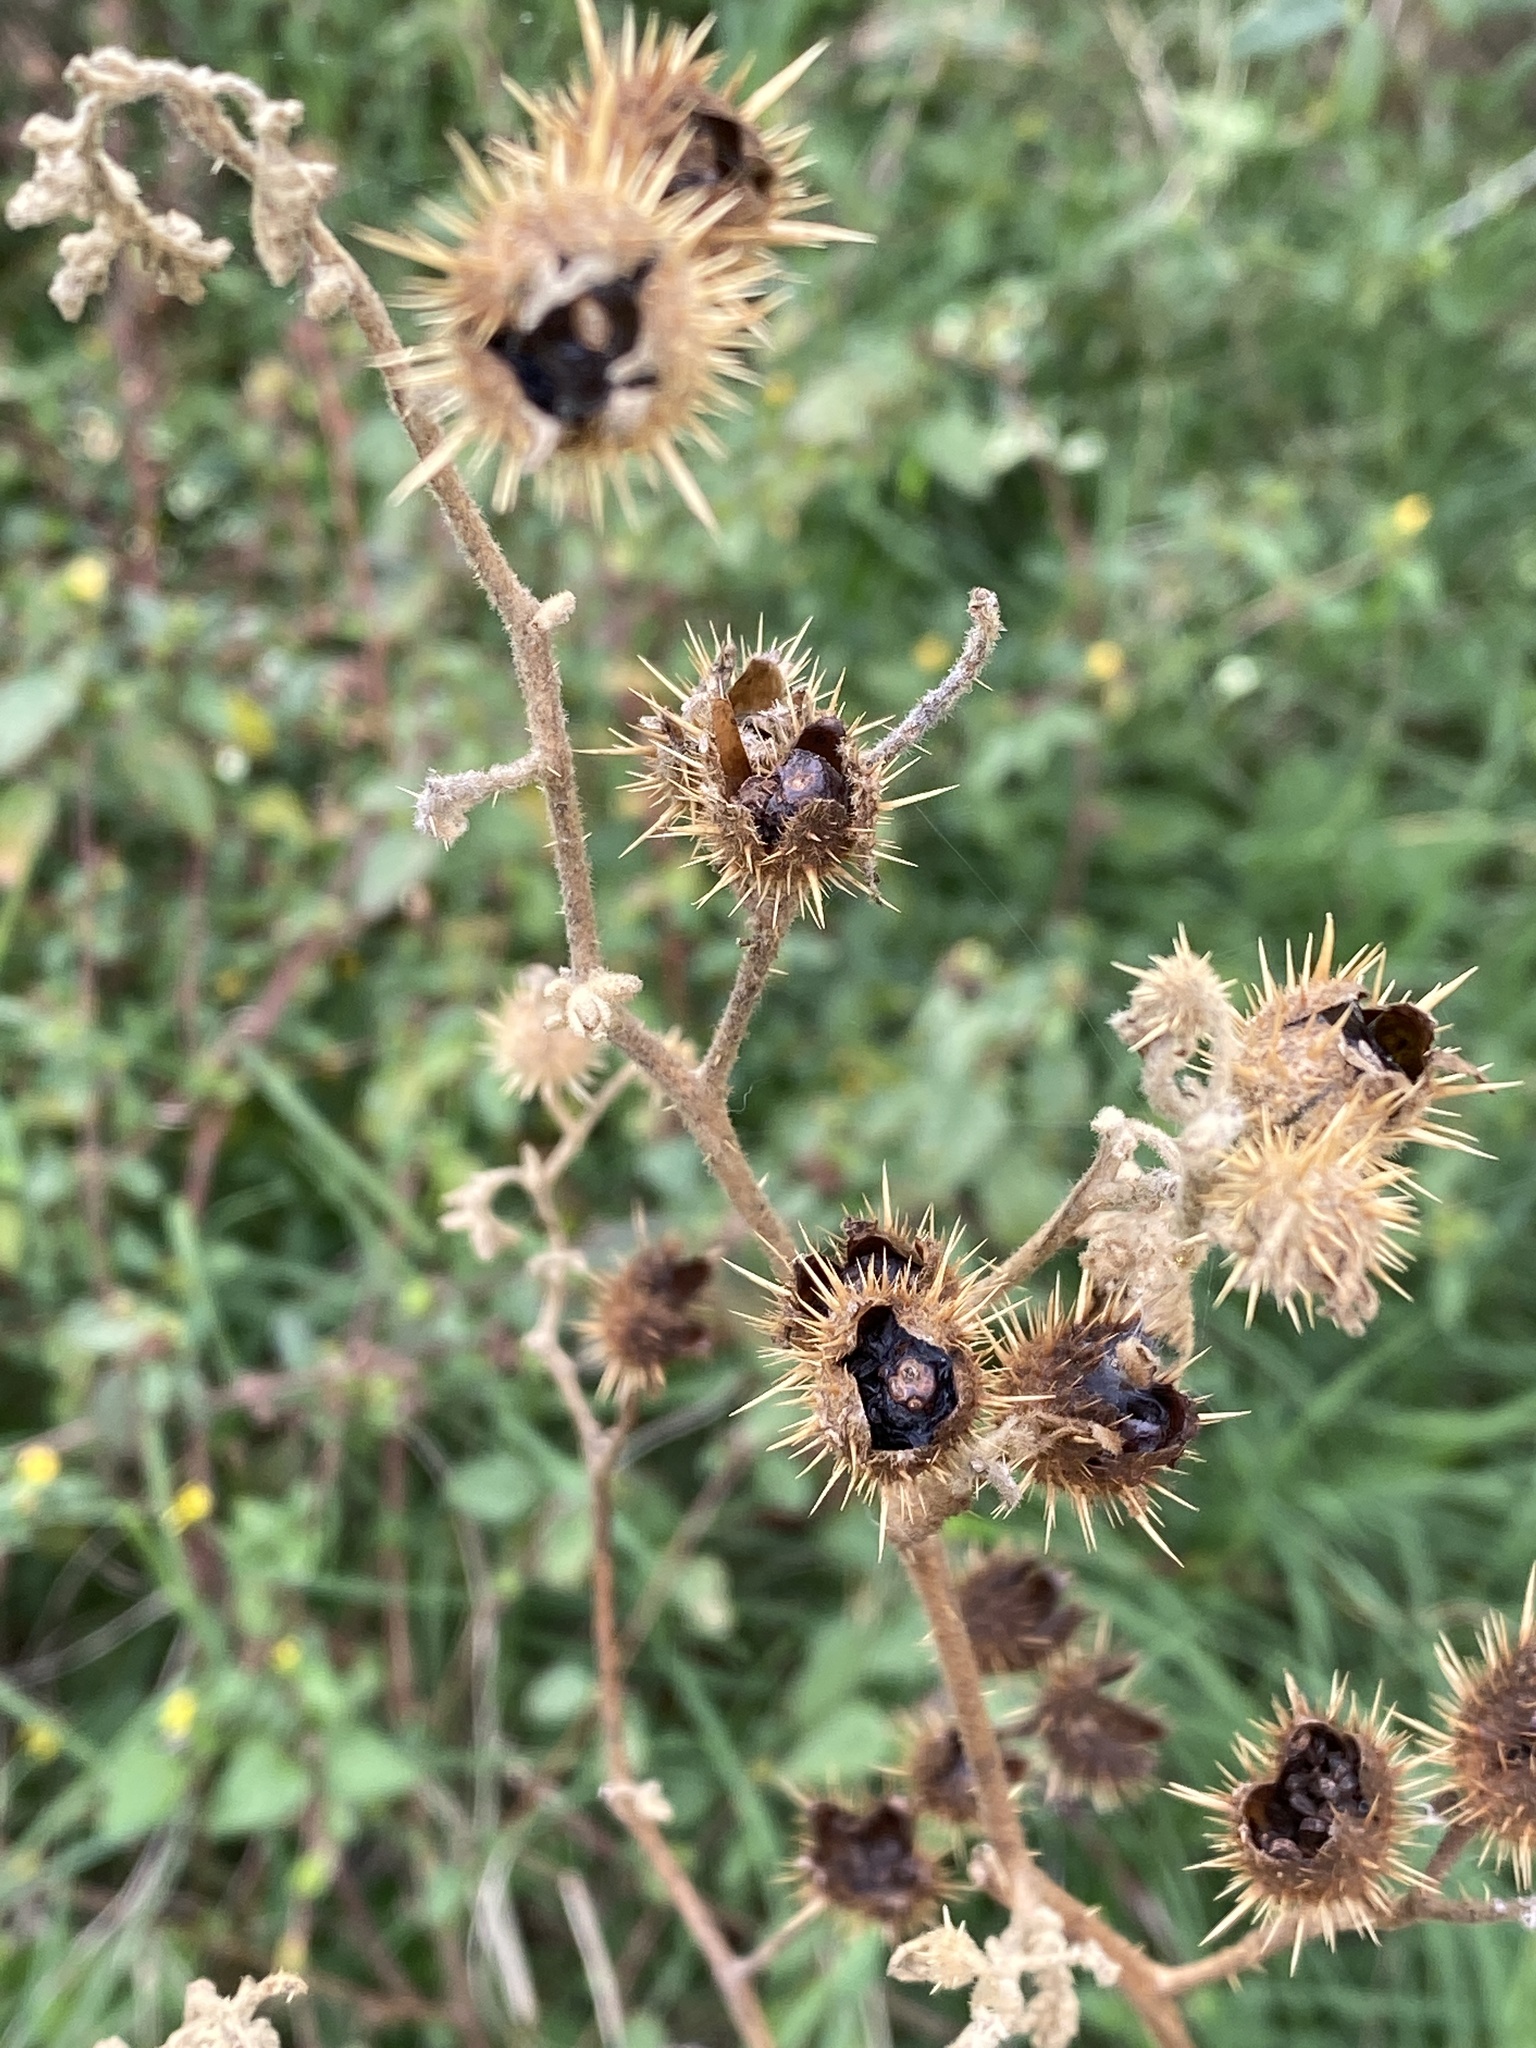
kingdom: Plantae
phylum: Tracheophyta
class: Magnoliopsida
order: Solanales
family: Solanaceae
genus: Solanum
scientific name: Solanum angustifolium
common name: Buffalobur nightshade
